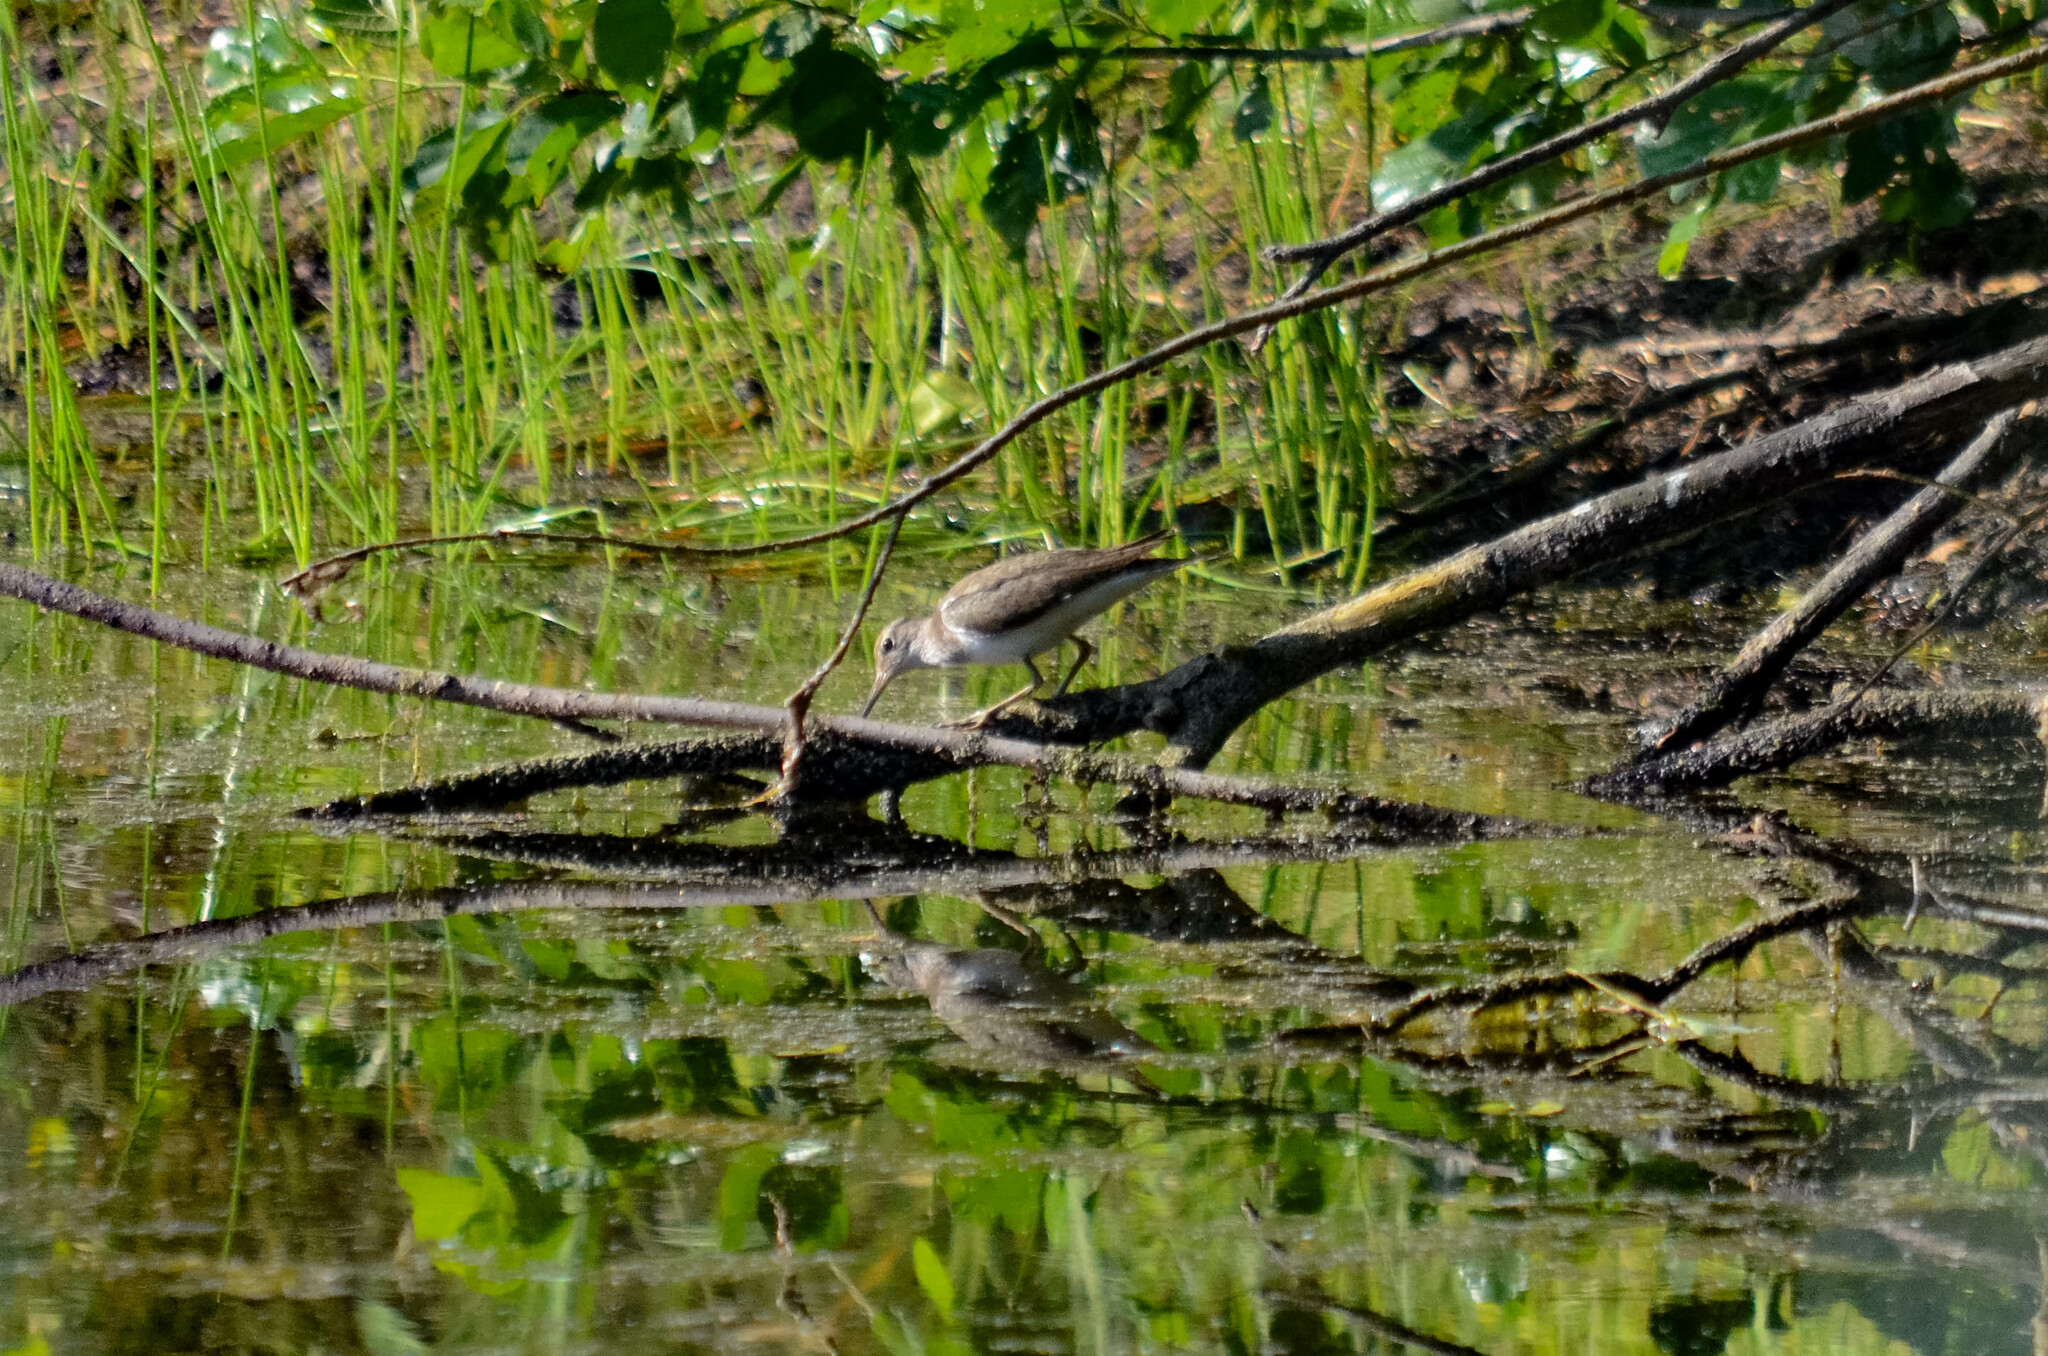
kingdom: Animalia
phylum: Chordata
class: Aves
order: Charadriiformes
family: Scolopacidae
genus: Actitis
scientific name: Actitis hypoleucos
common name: Common sandpiper
